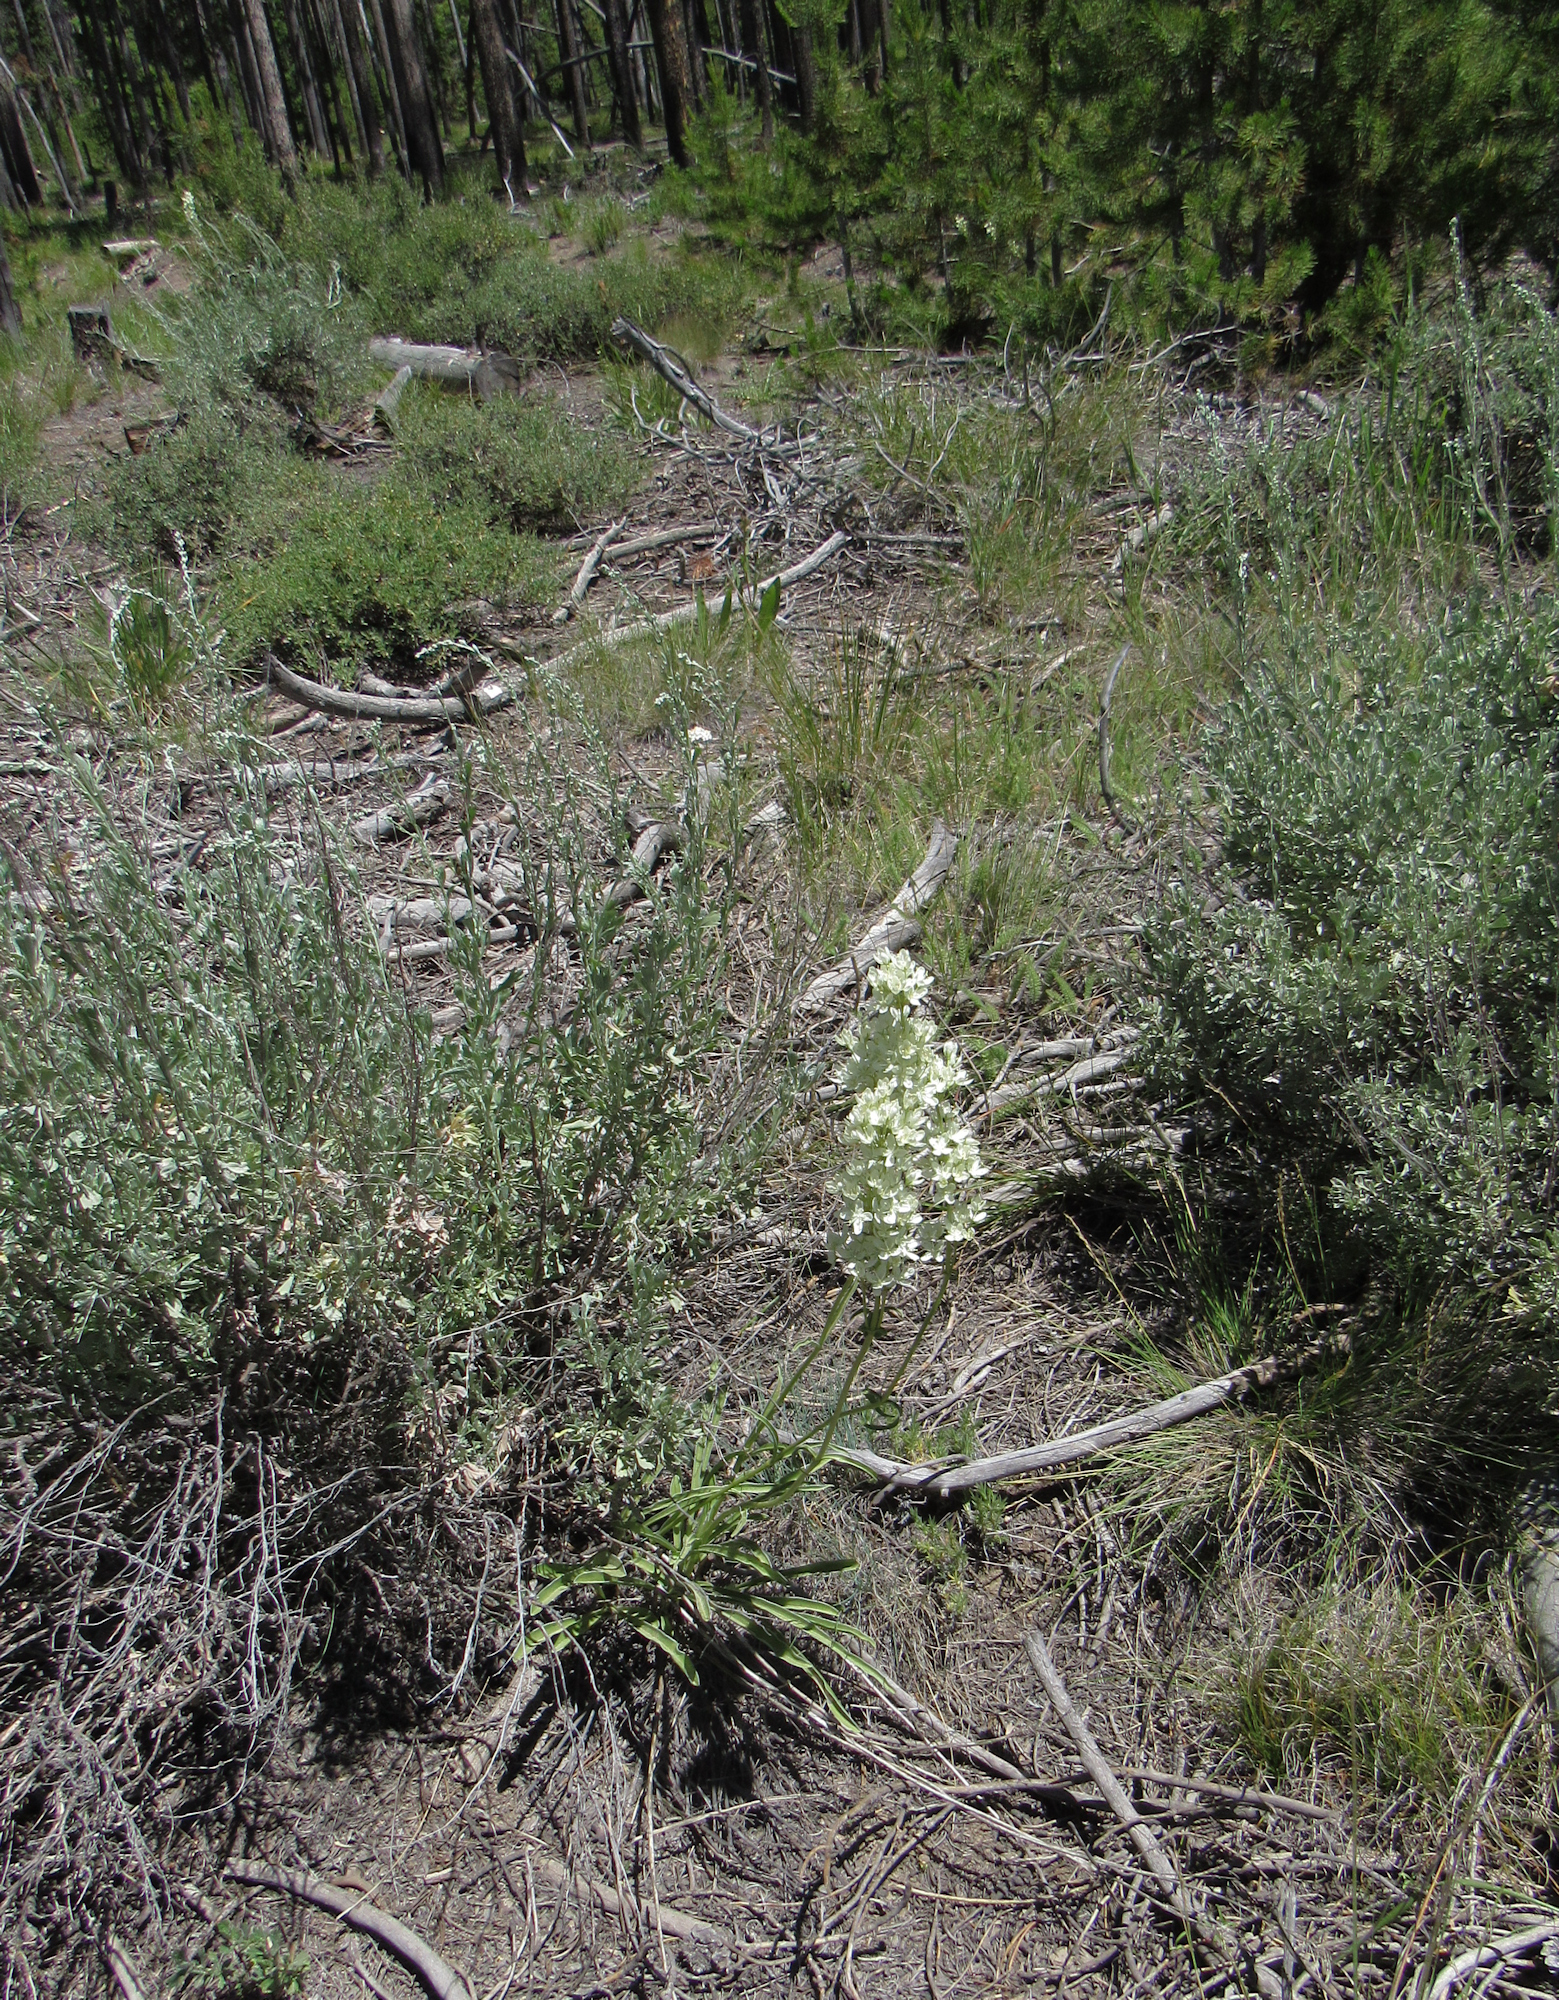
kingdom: Plantae
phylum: Tracheophyta
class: Magnoliopsida
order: Gentianales
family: Gentianaceae
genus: Frasera
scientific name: Frasera montana
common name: White frasera
